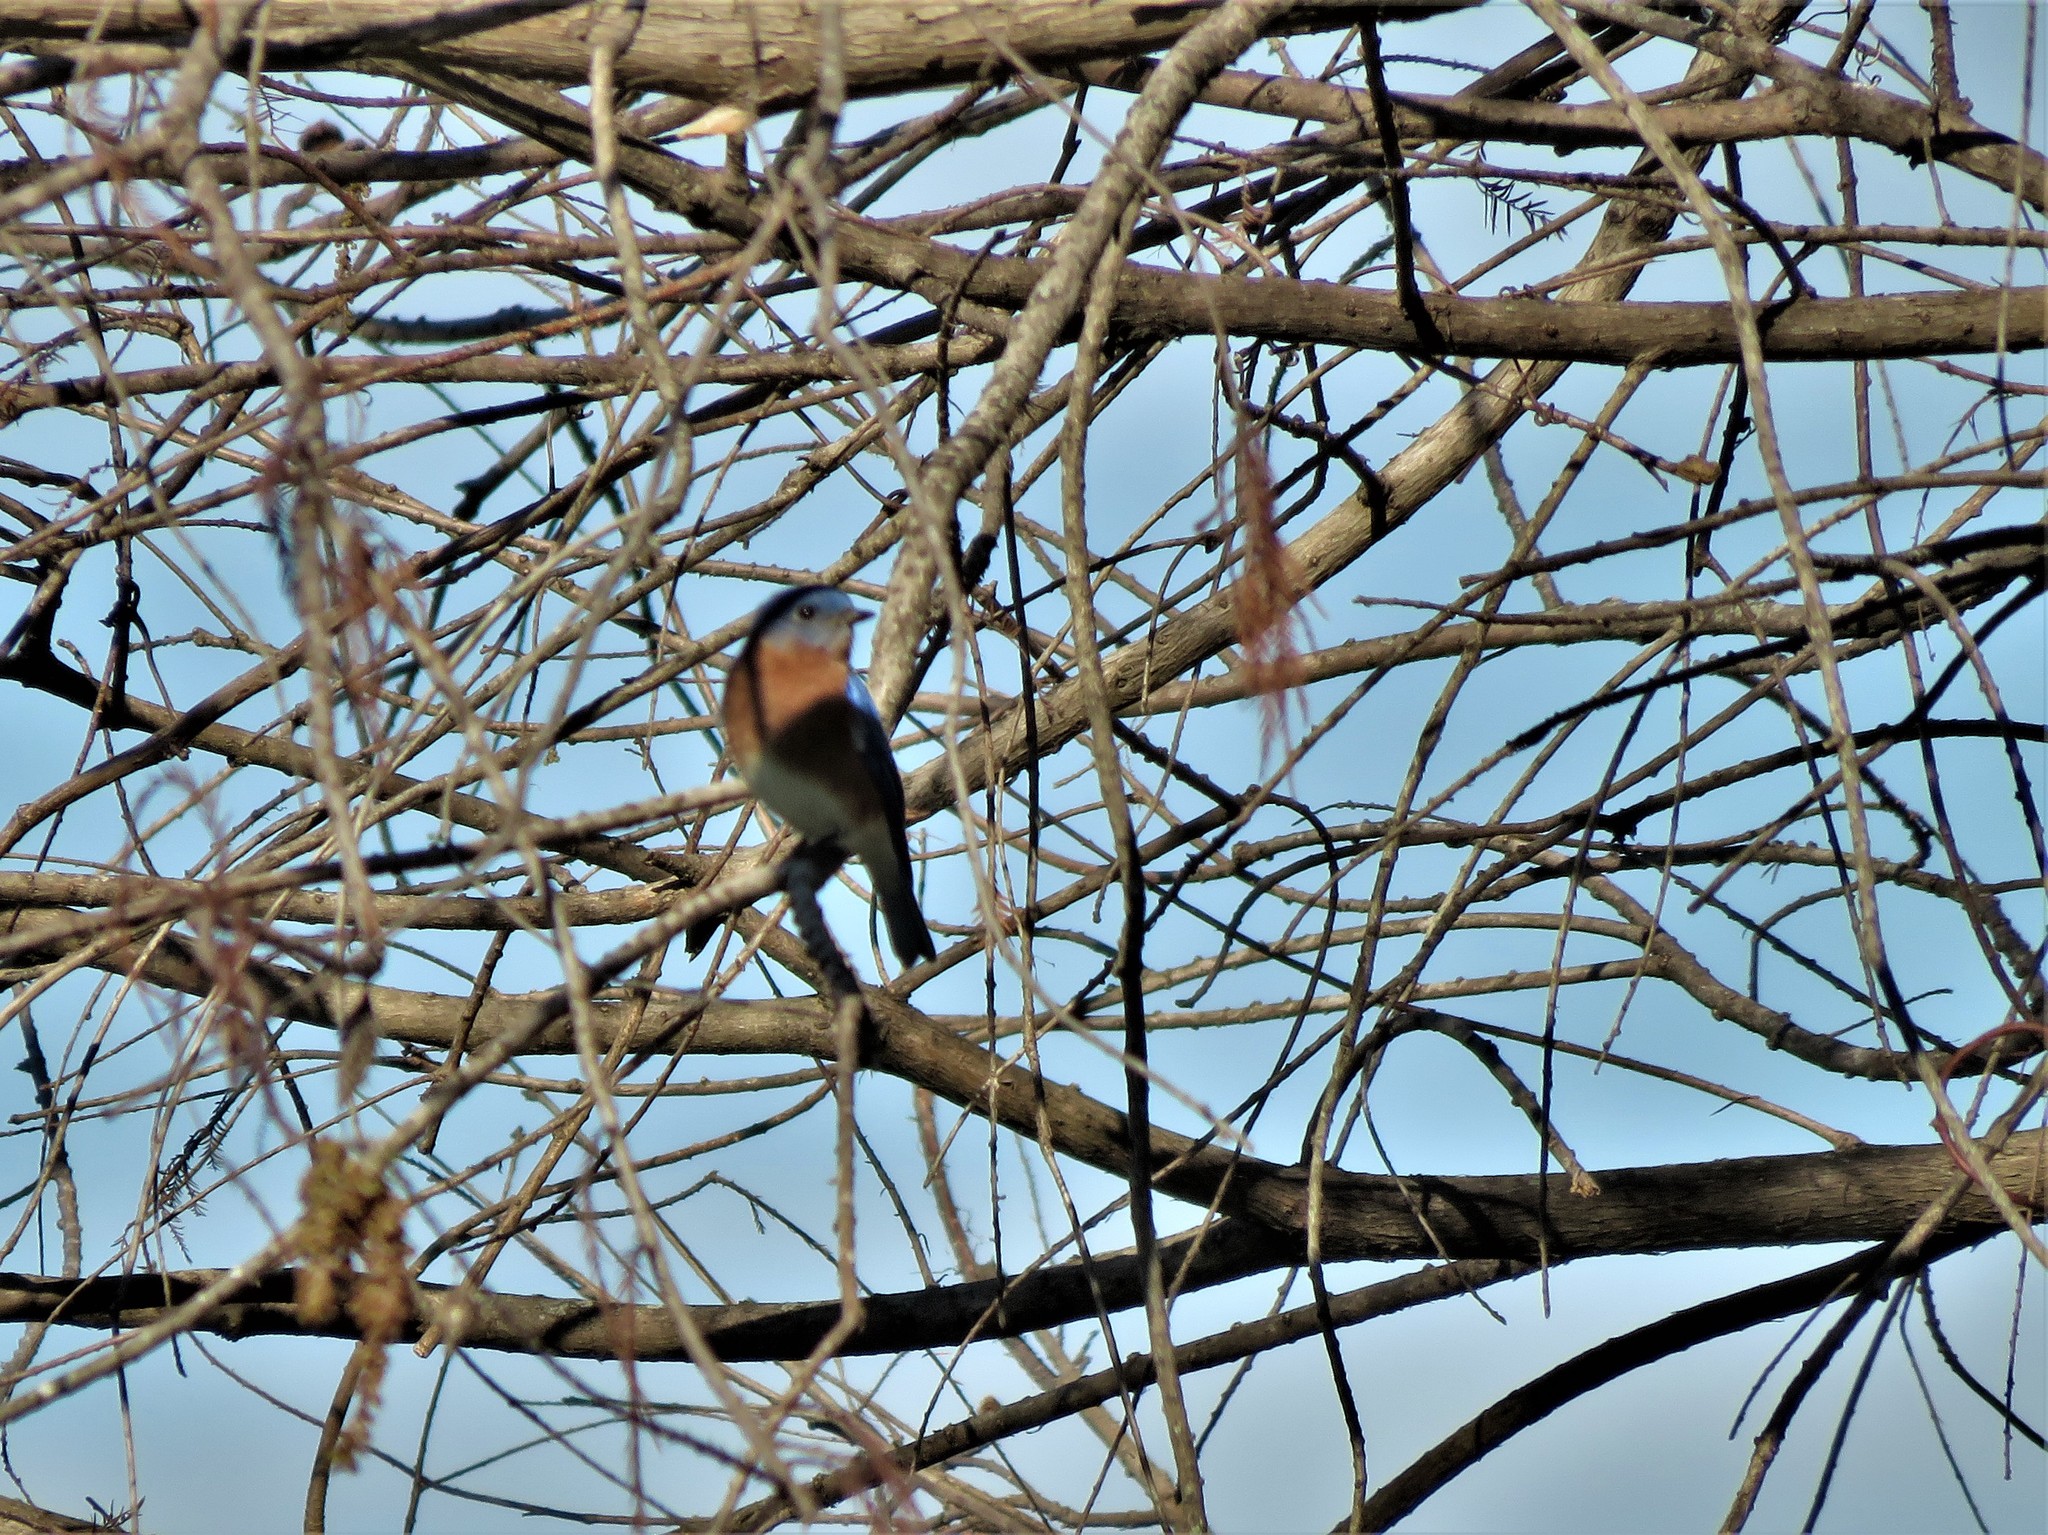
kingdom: Animalia
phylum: Chordata
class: Aves
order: Passeriformes
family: Turdidae
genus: Sialia
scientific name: Sialia sialis
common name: Eastern bluebird
